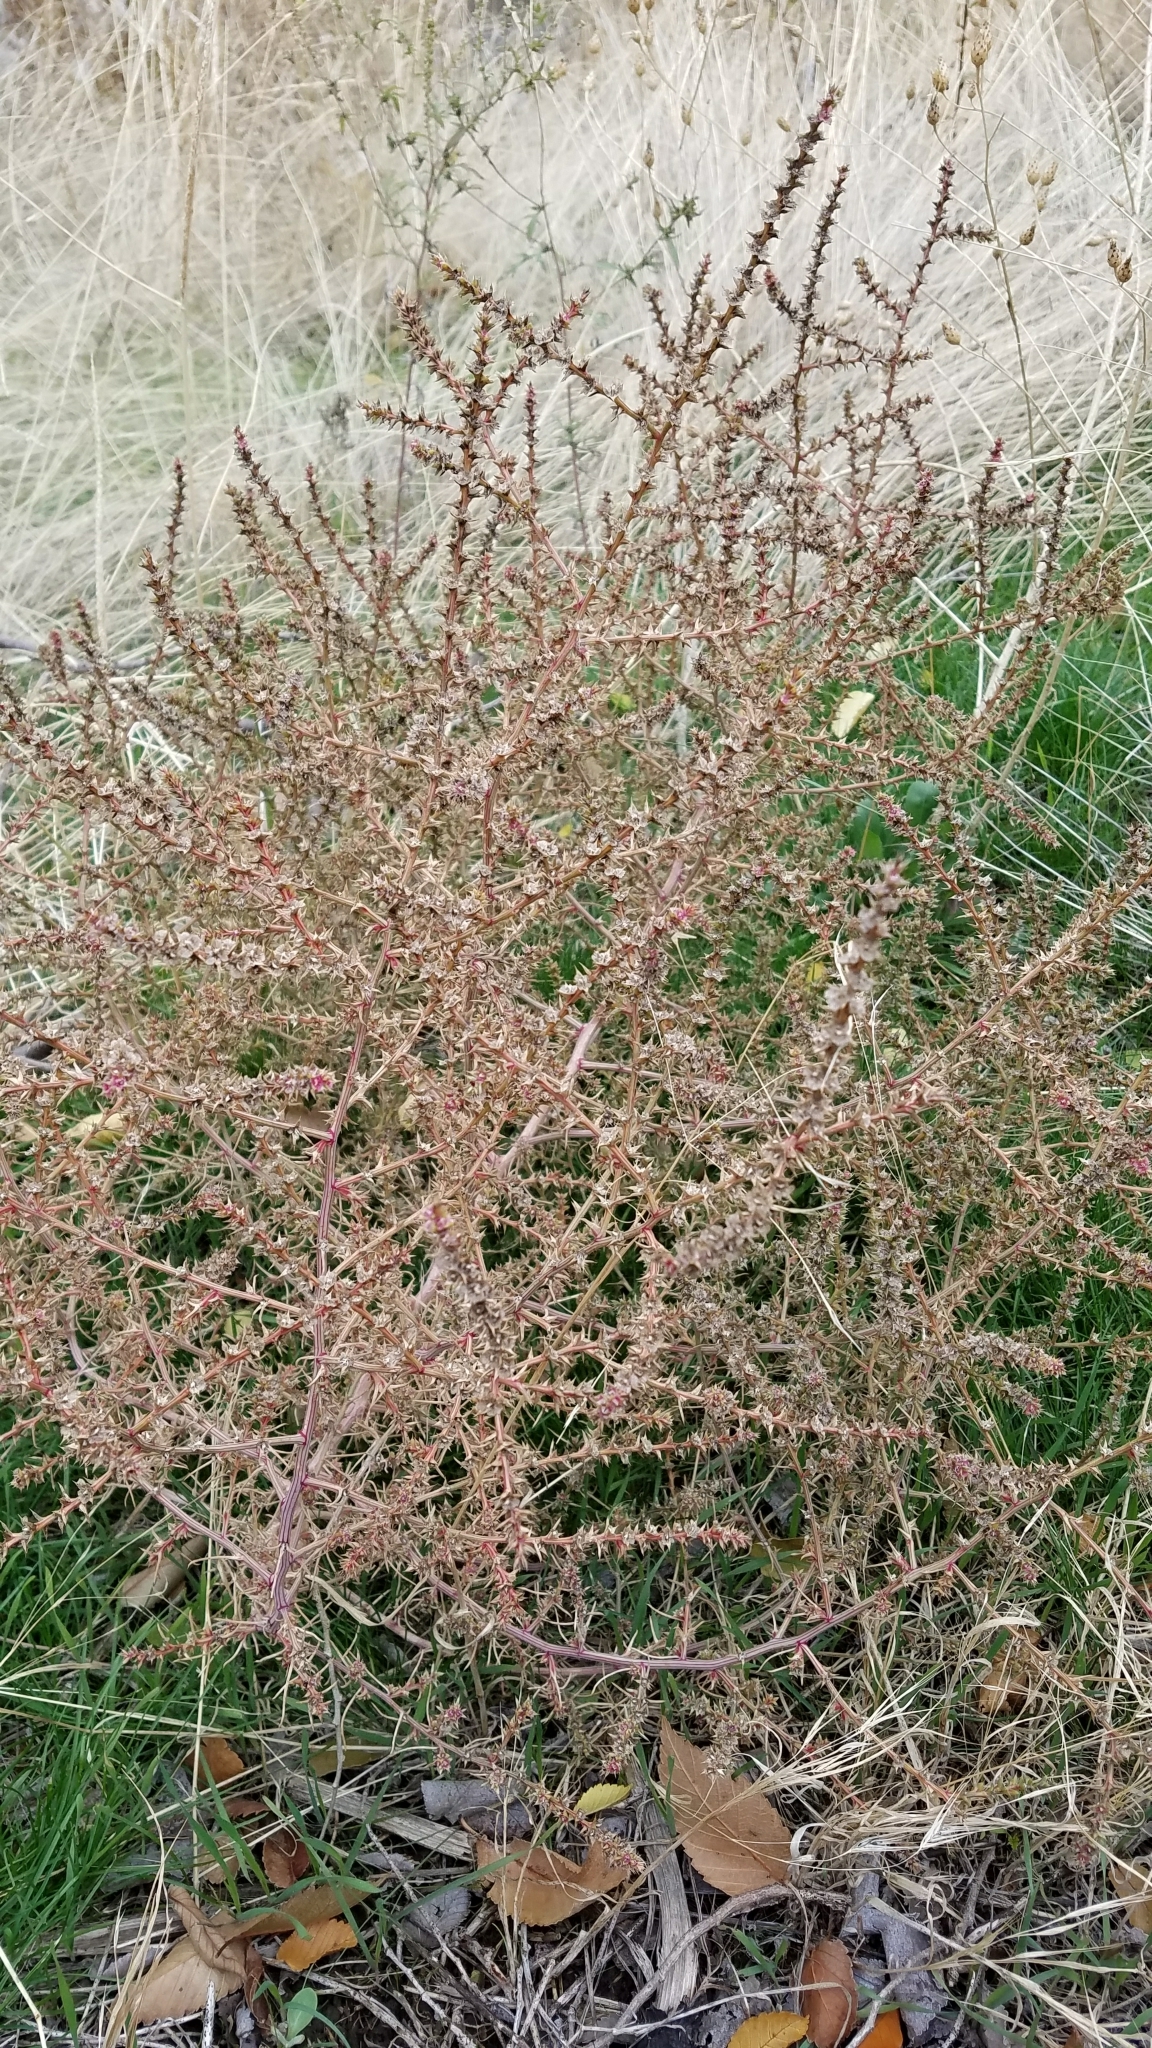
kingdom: Plantae
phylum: Tracheophyta
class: Magnoliopsida
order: Caryophyllales
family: Amaranthaceae
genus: Salsola
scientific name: Salsola tragus
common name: Prickly russian thistle
